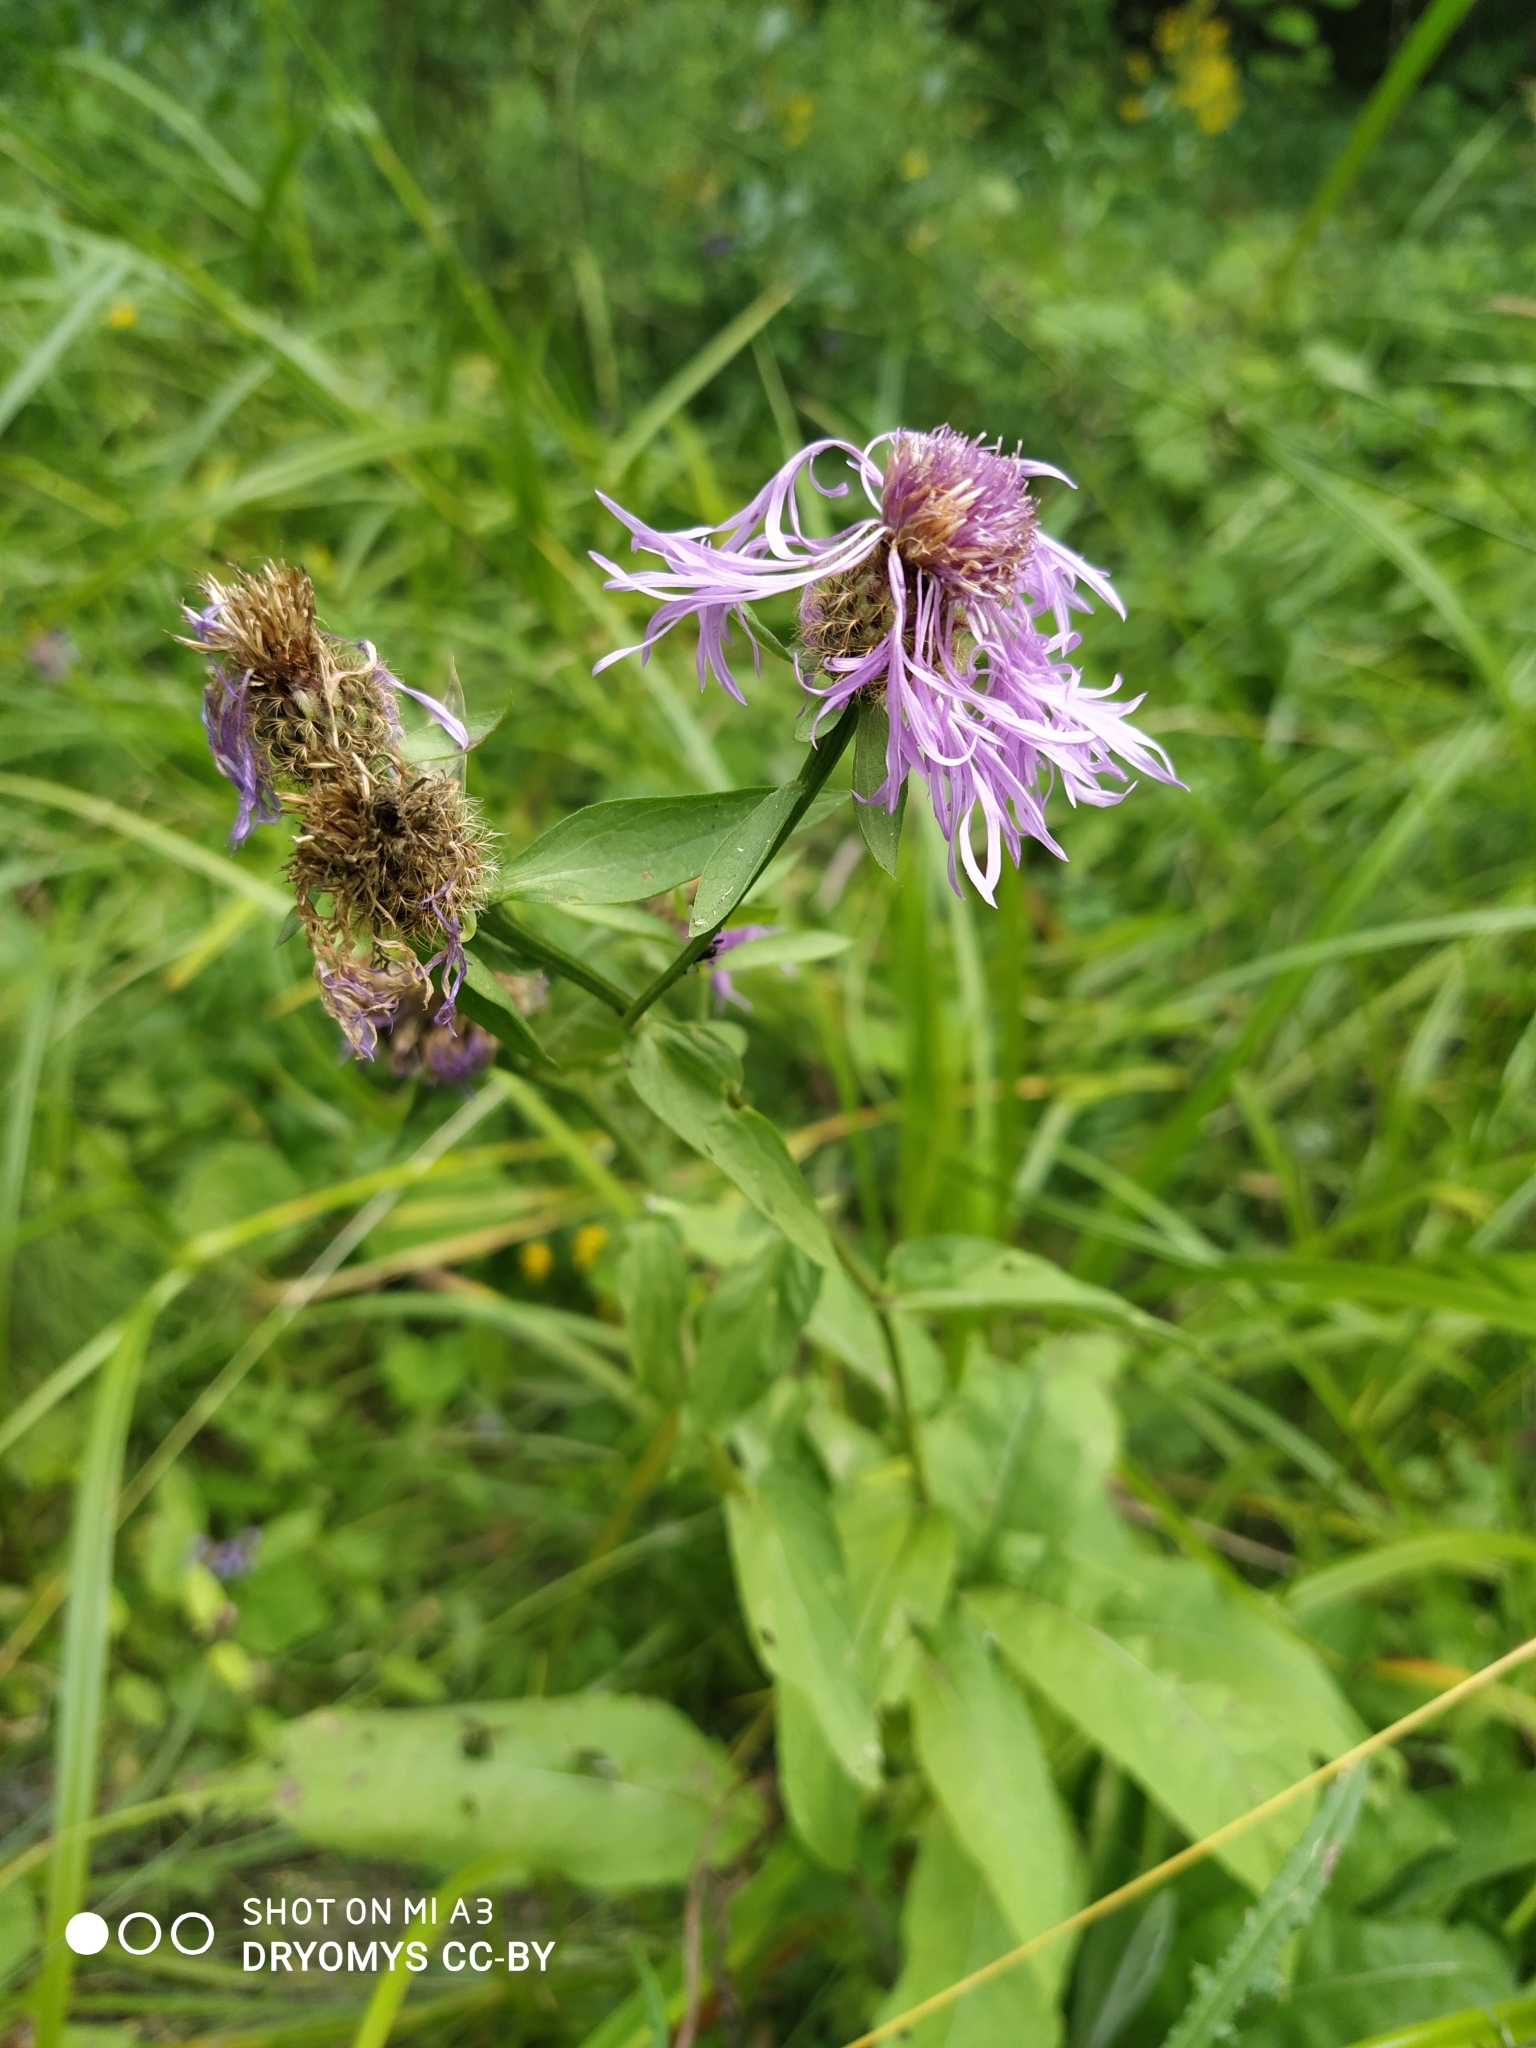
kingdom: Plantae
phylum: Tracheophyta
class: Magnoliopsida
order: Asterales
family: Asteraceae
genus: Centaurea
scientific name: Centaurea phrygia
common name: Wig knapweed
